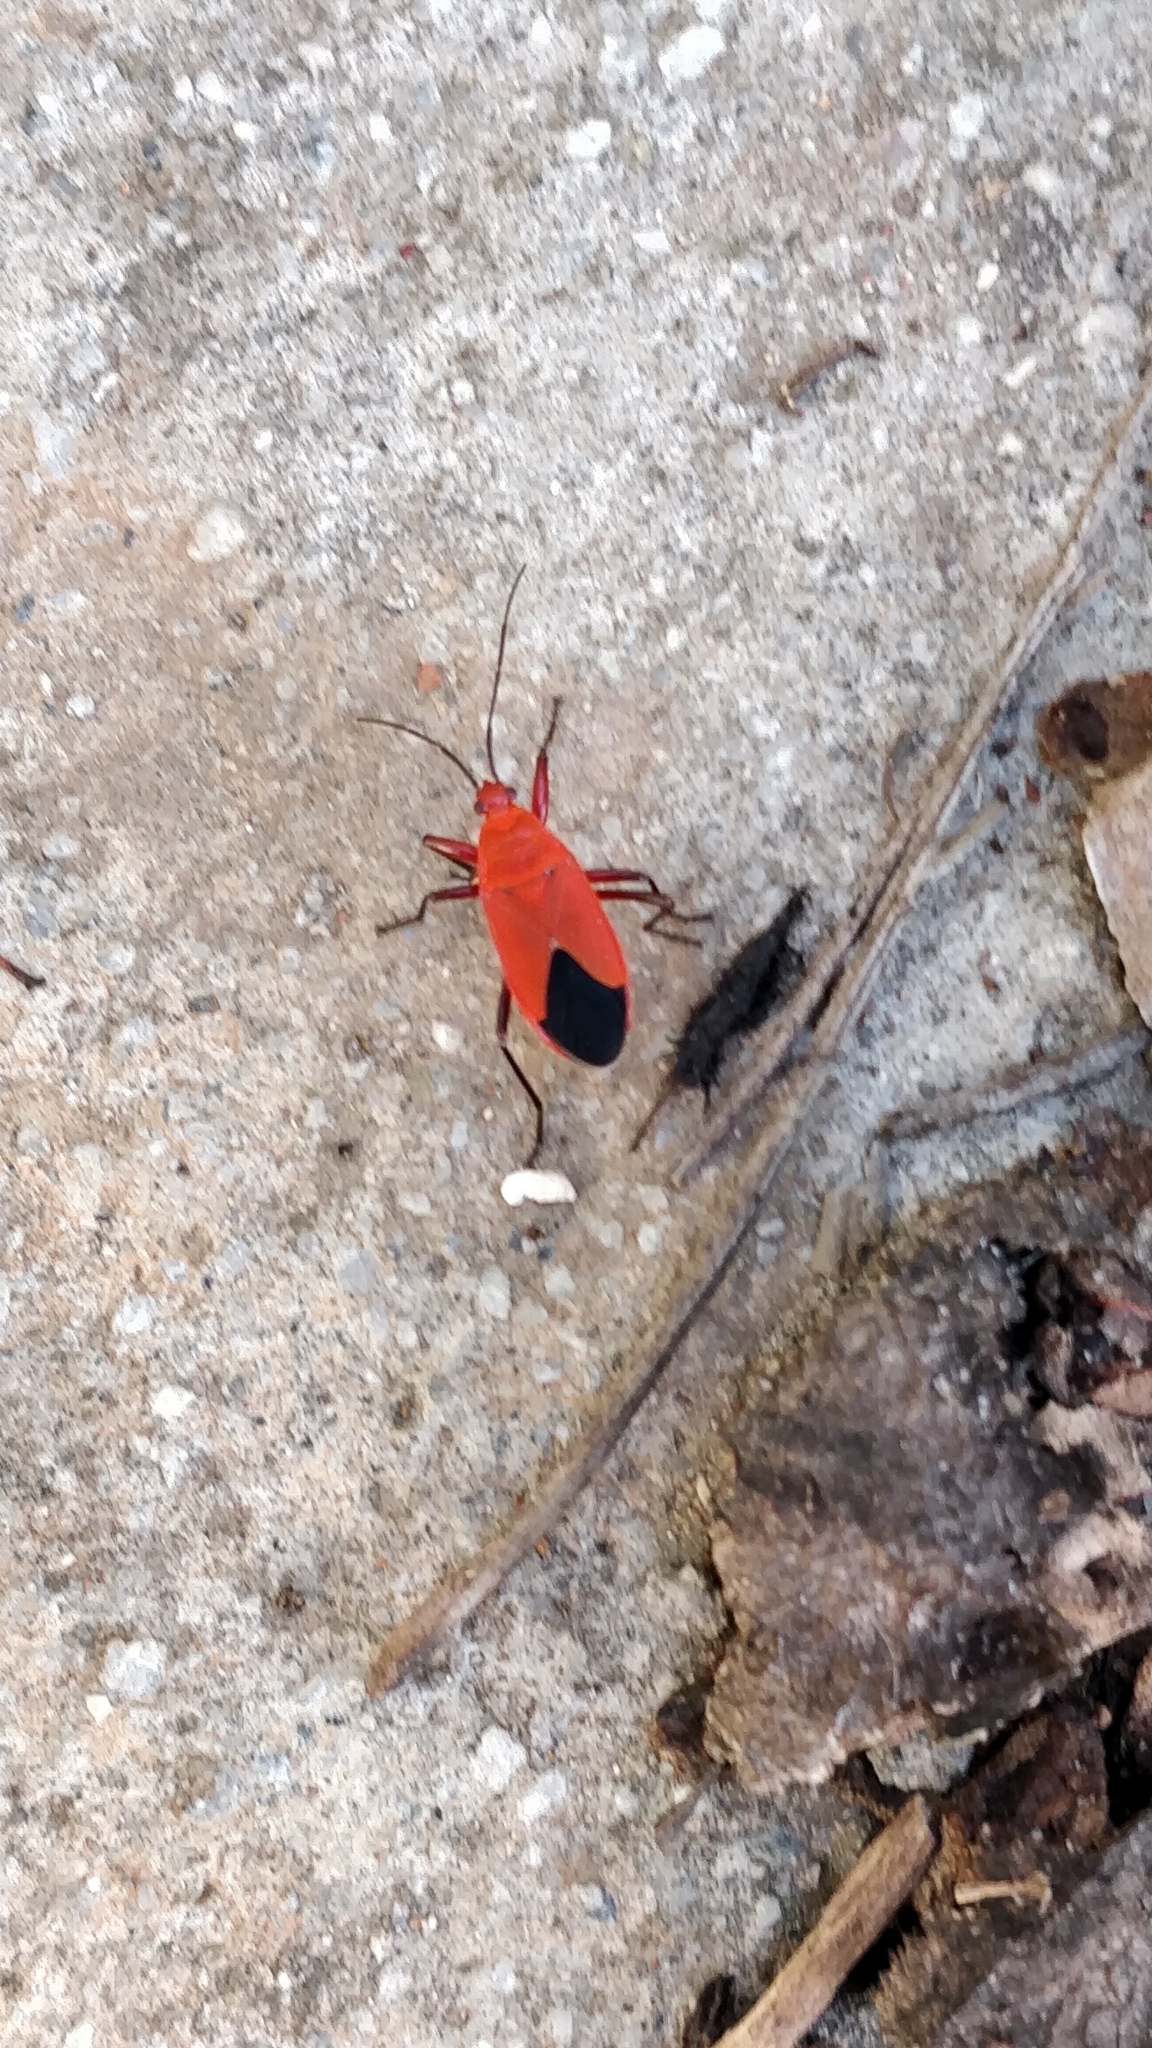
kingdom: Animalia
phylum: Arthropoda
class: Insecta
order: Hemiptera
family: Pyrrhocoridae
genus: Antilochus
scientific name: Antilochus coquebertii
